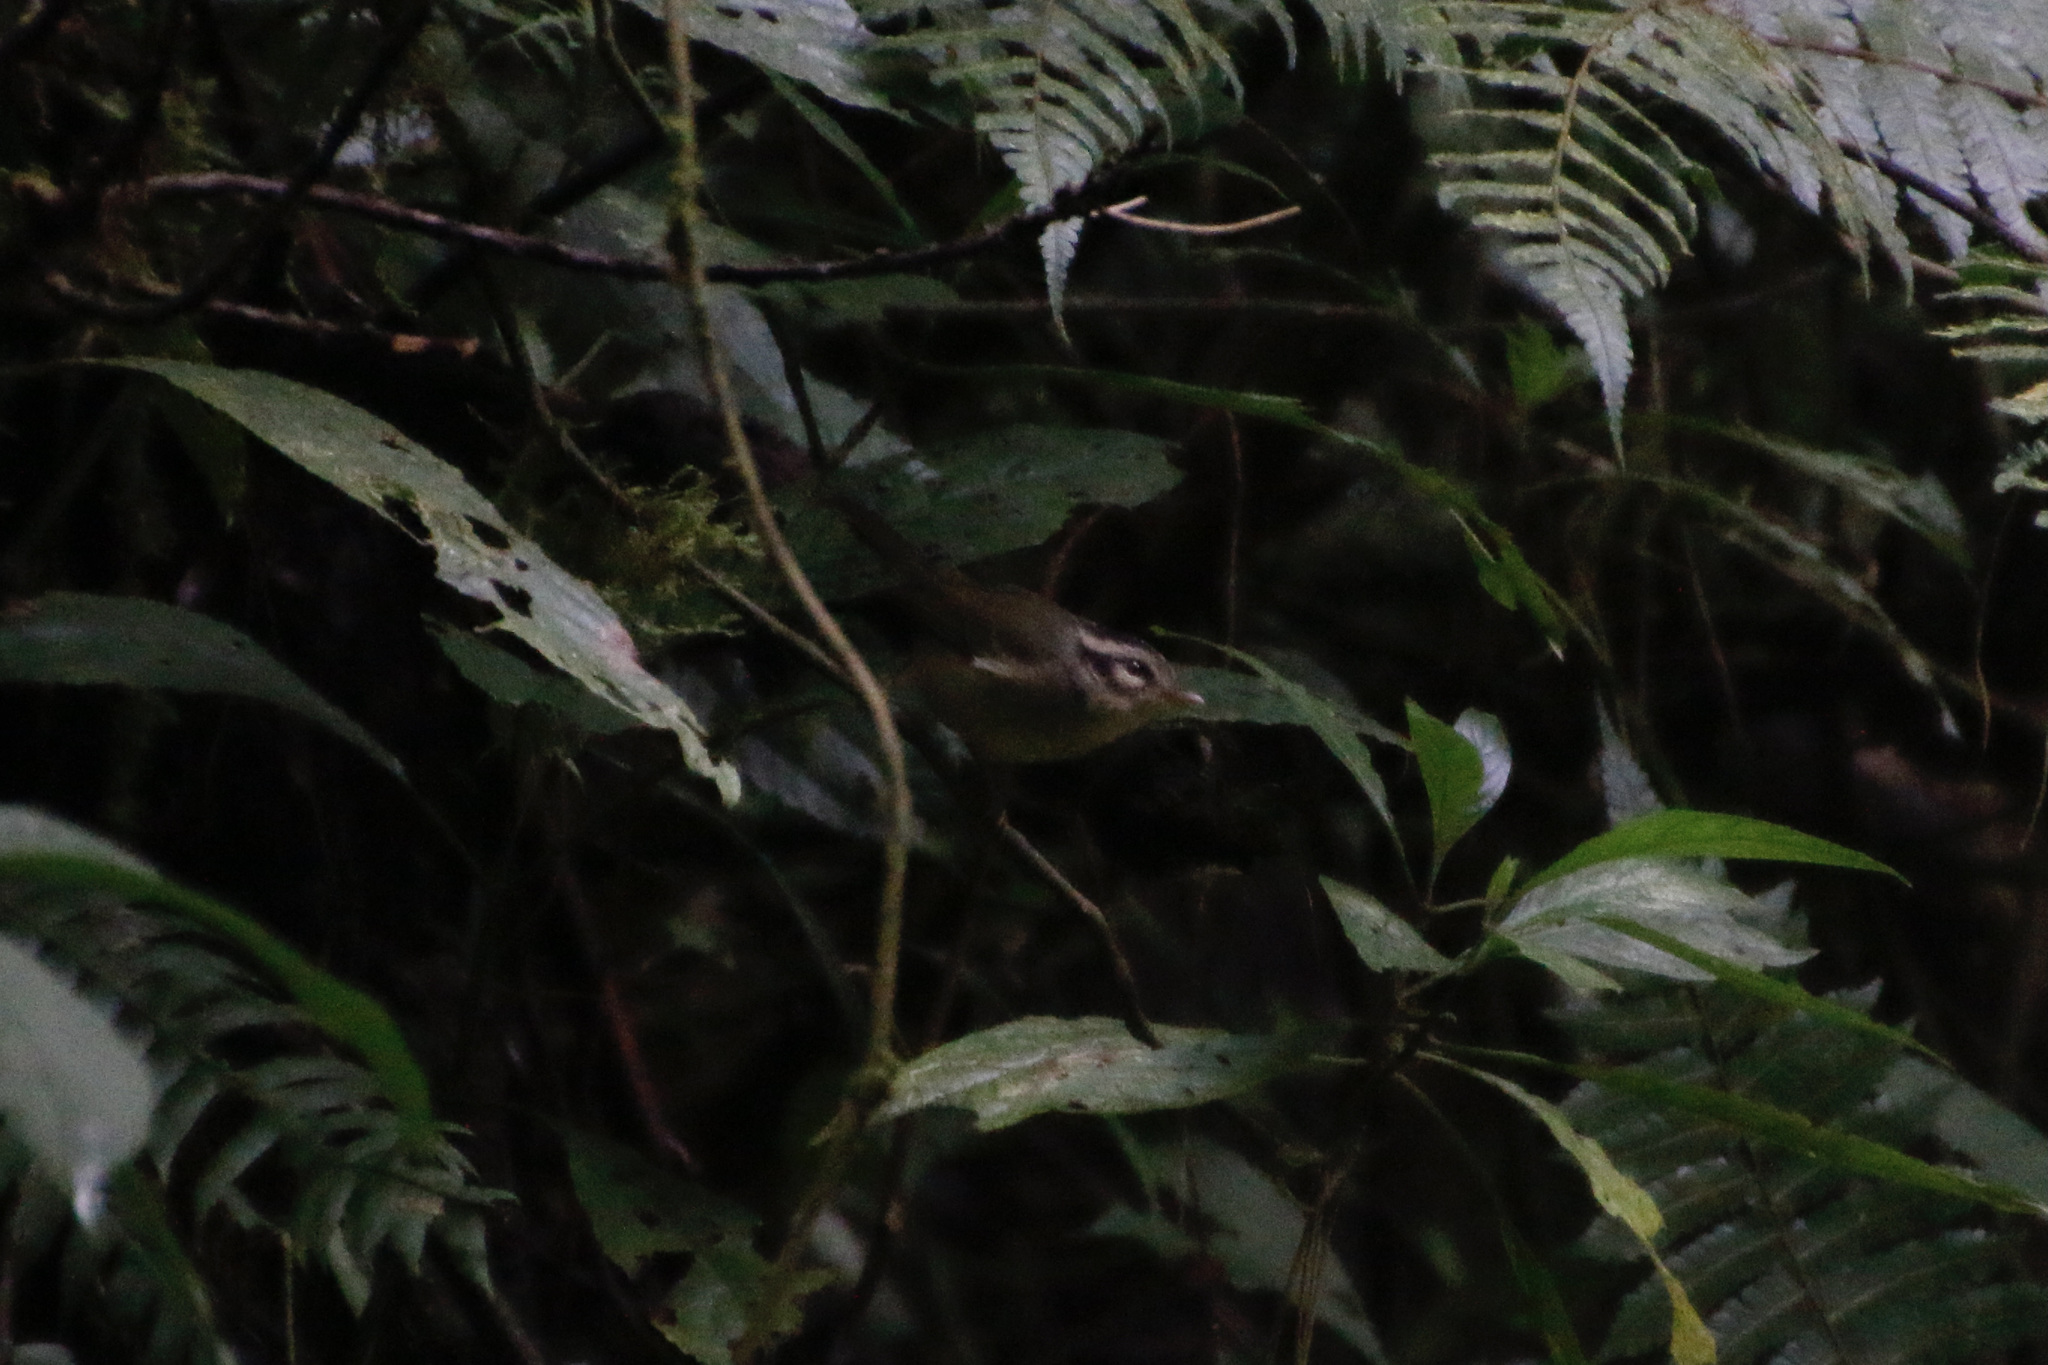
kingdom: Animalia
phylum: Chordata
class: Aves
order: Passeriformes
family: Parulidae
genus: Basileuterus
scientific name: Basileuterus melanotis
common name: Black-eared warbler
